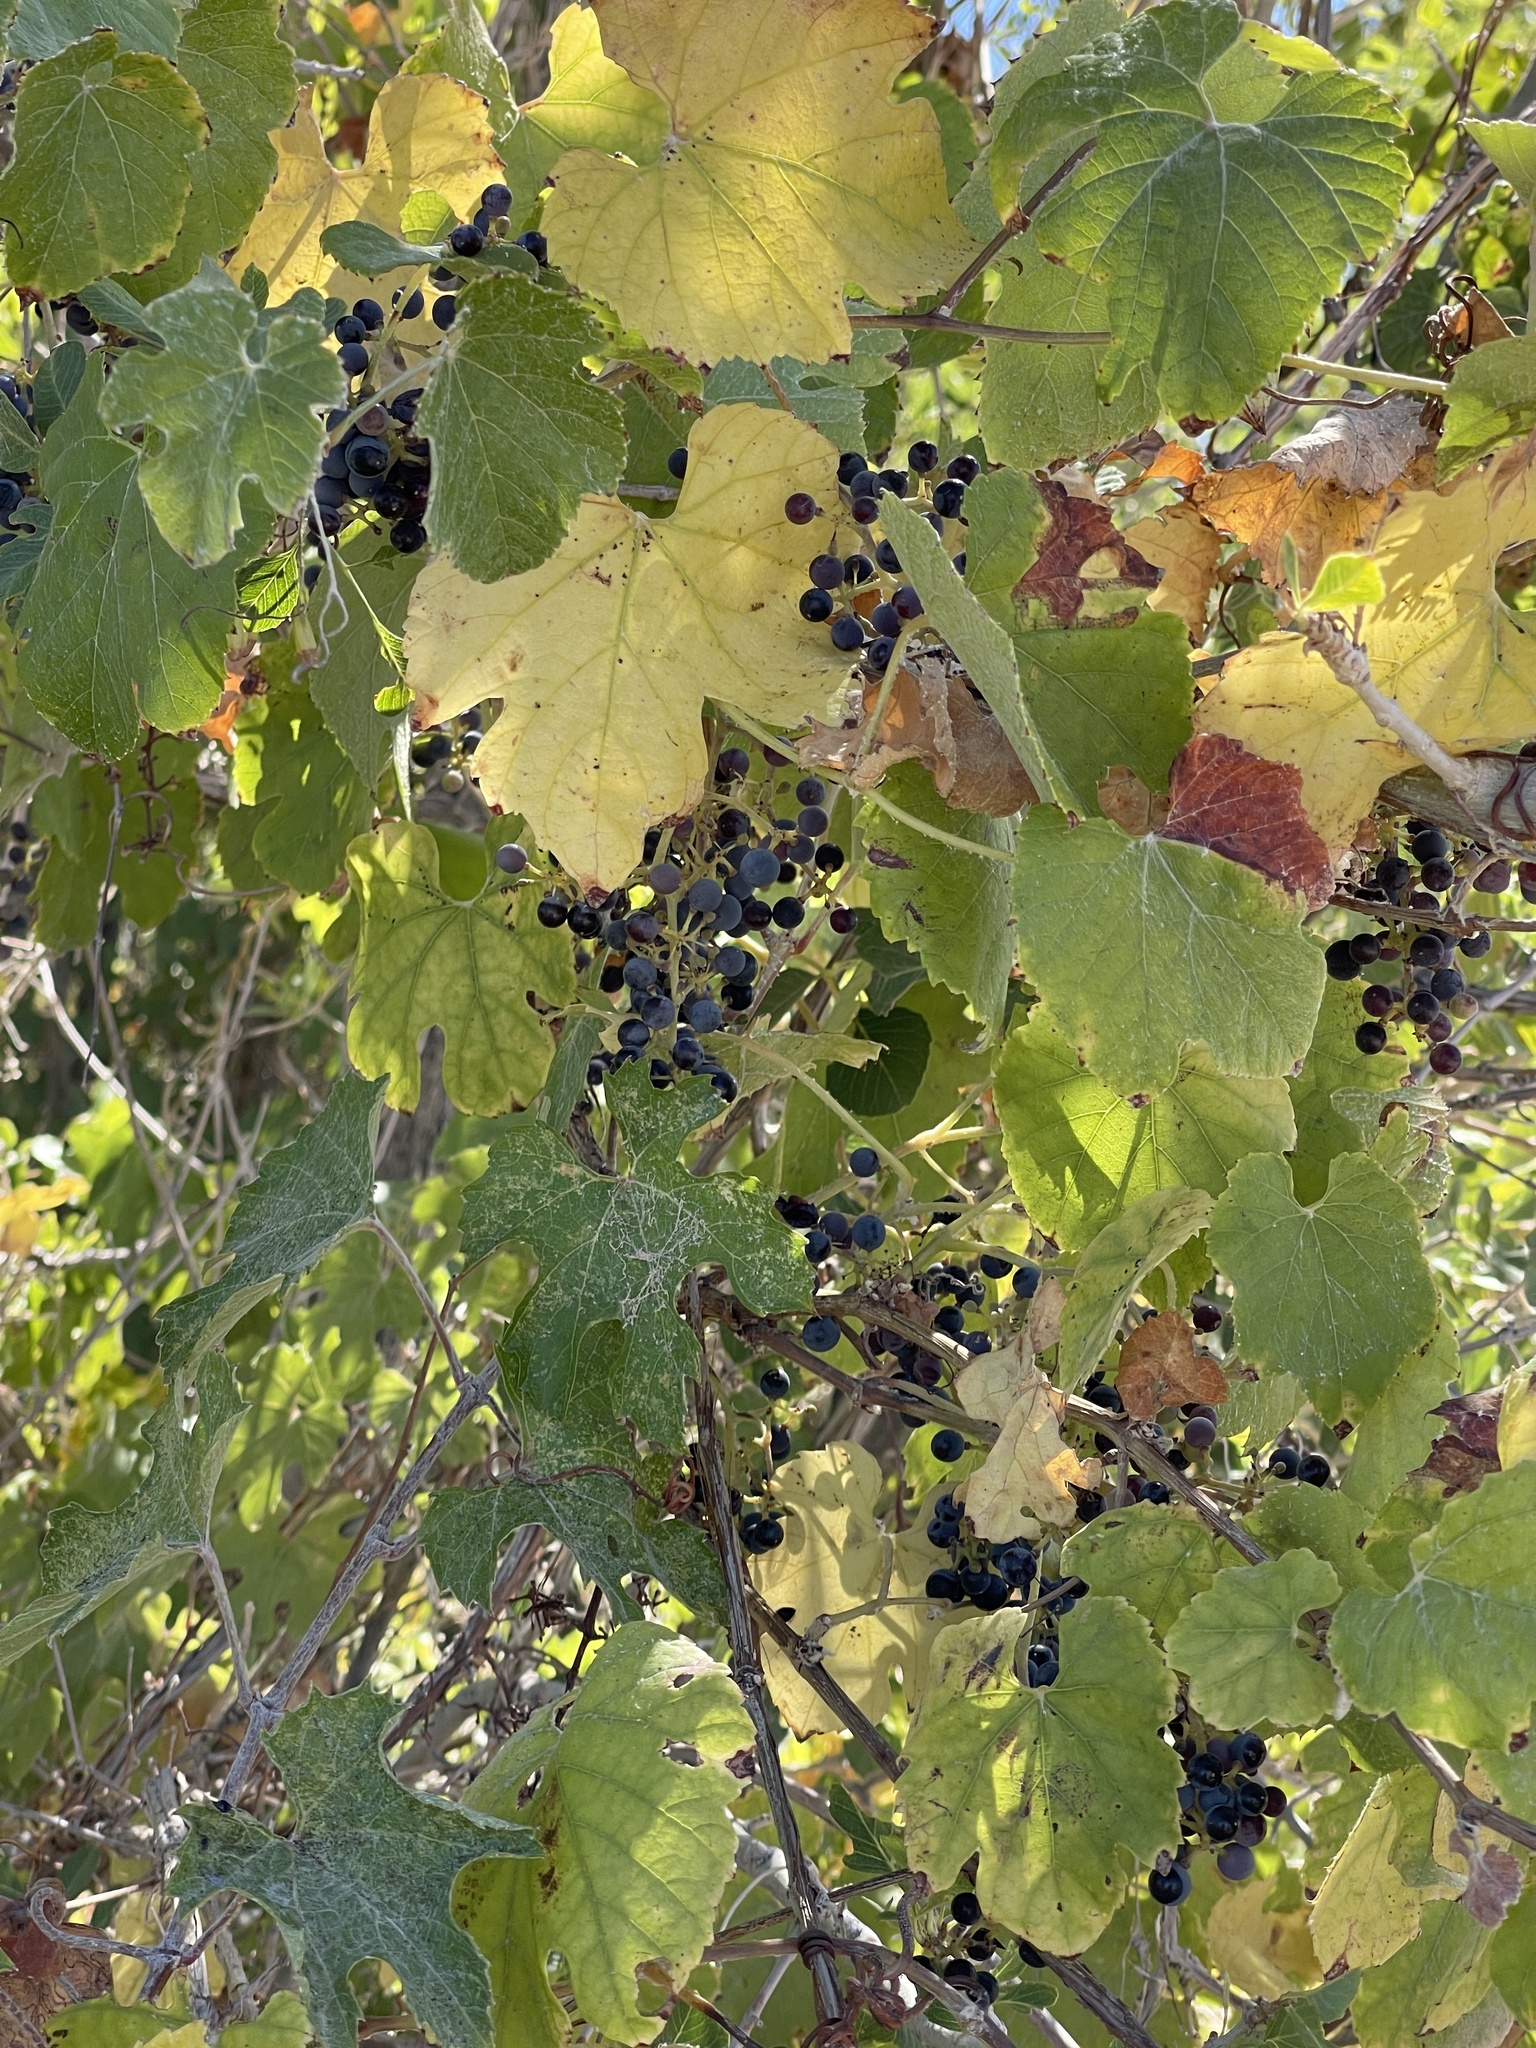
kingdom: Plantae
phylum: Tracheophyta
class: Magnoliopsida
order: Vitales
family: Vitaceae
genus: Vitis
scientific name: Vitis arizonica
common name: Canyon grape
